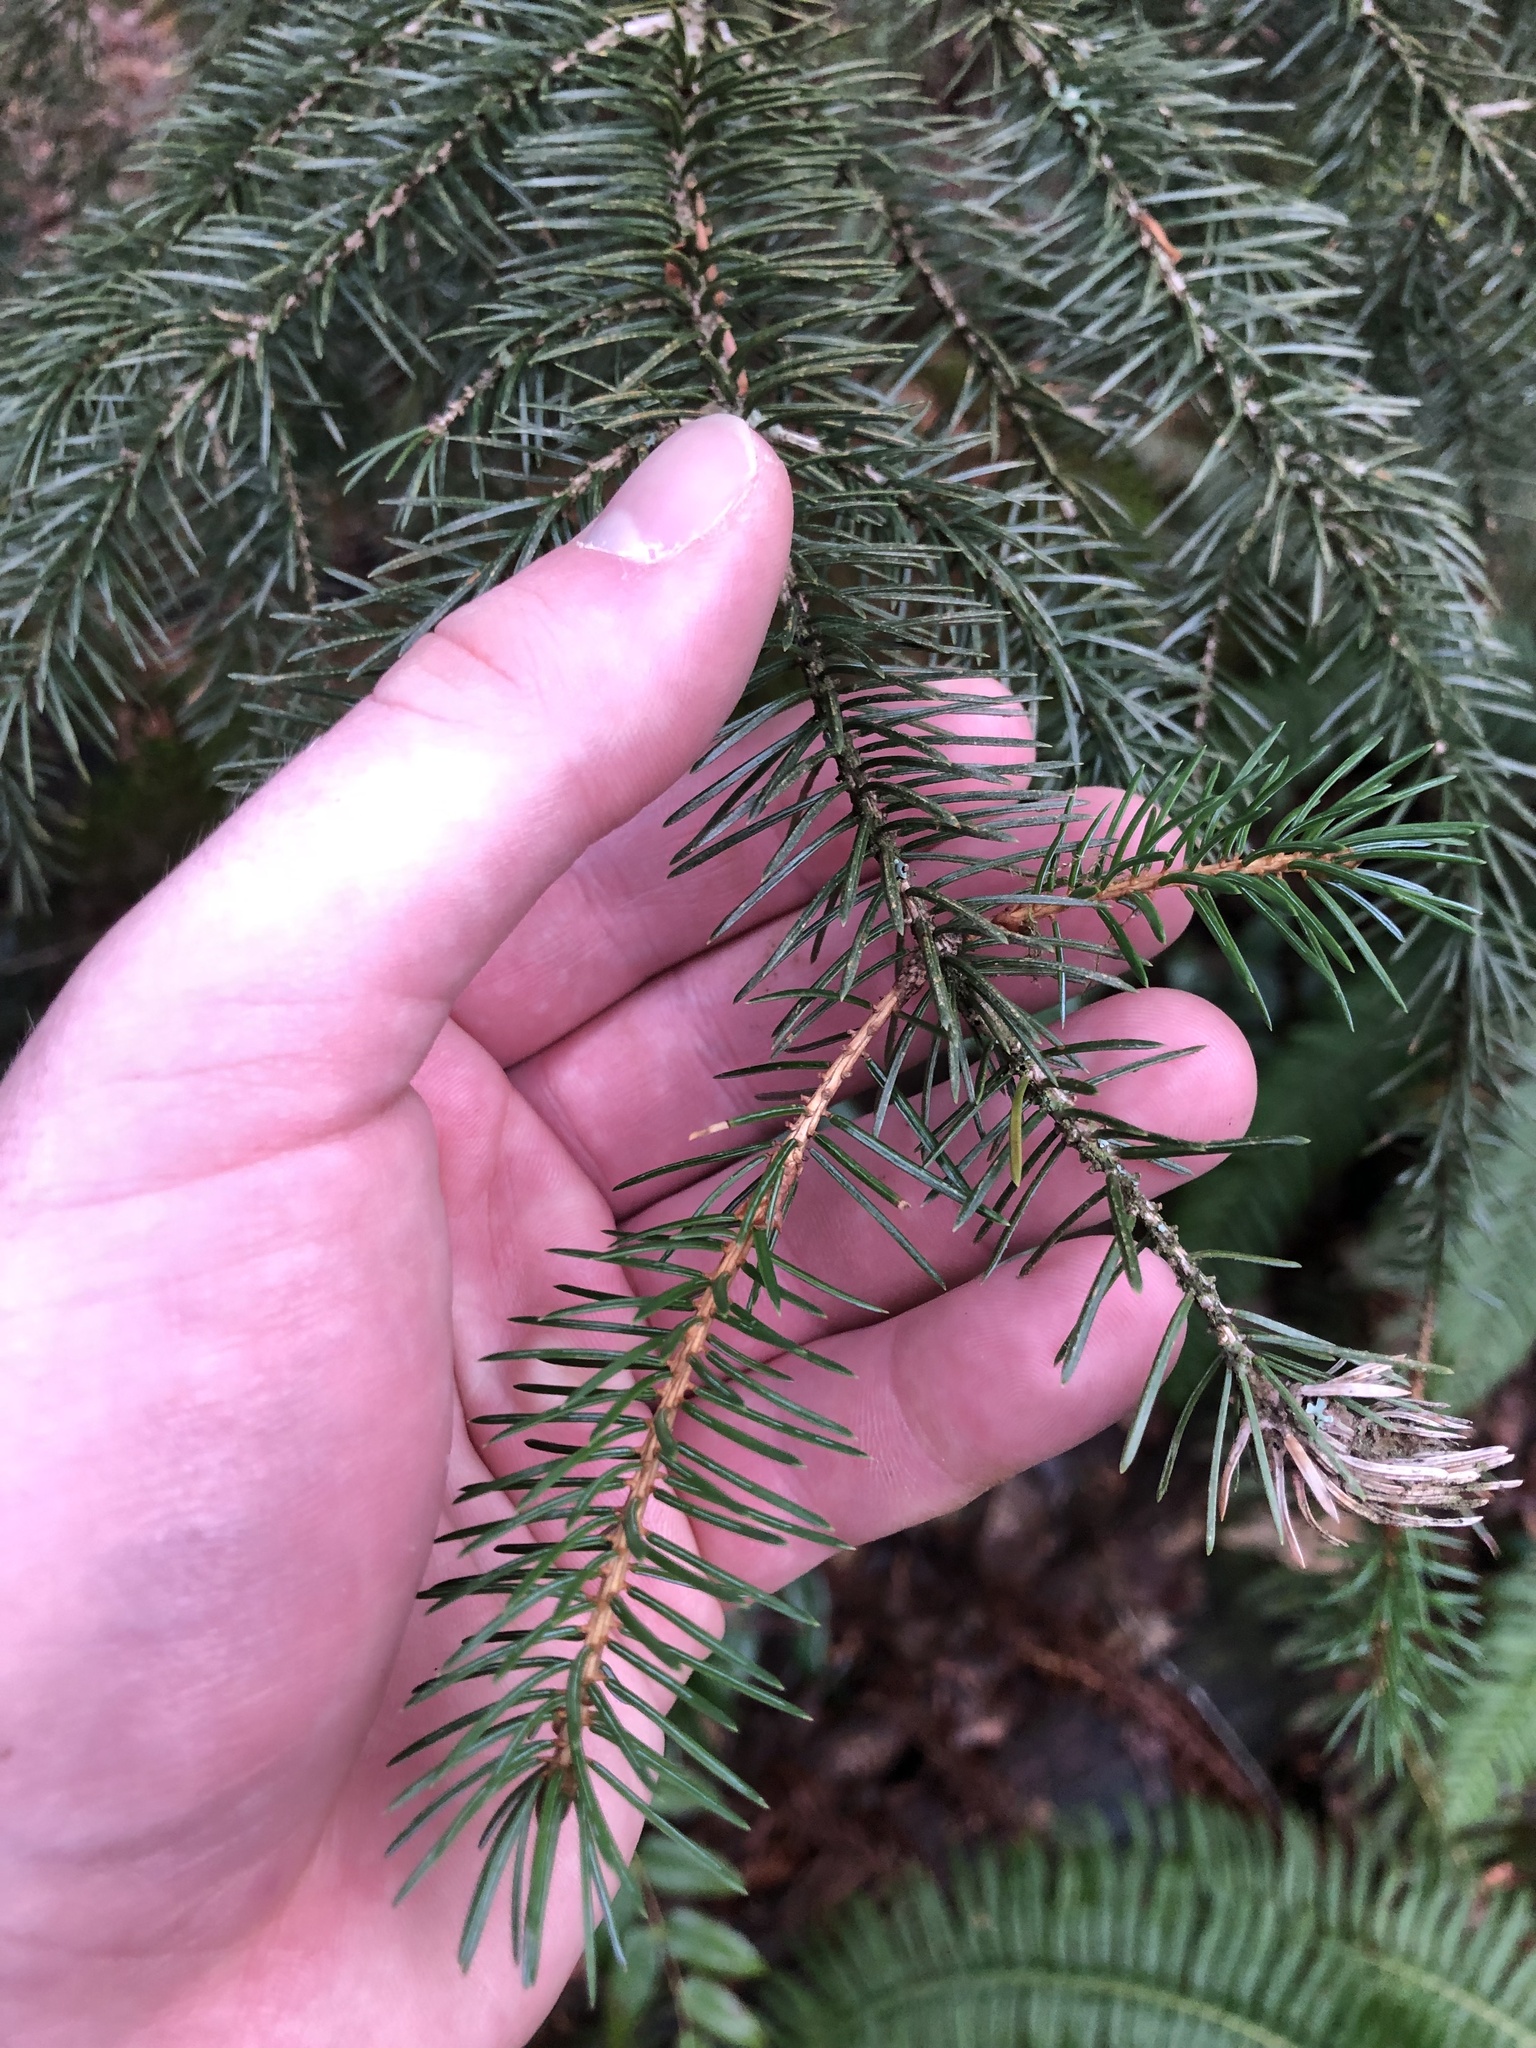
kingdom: Plantae
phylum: Tracheophyta
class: Pinopsida
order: Pinales
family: Pinaceae
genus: Picea
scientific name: Picea sitchensis
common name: Sitka spruce
